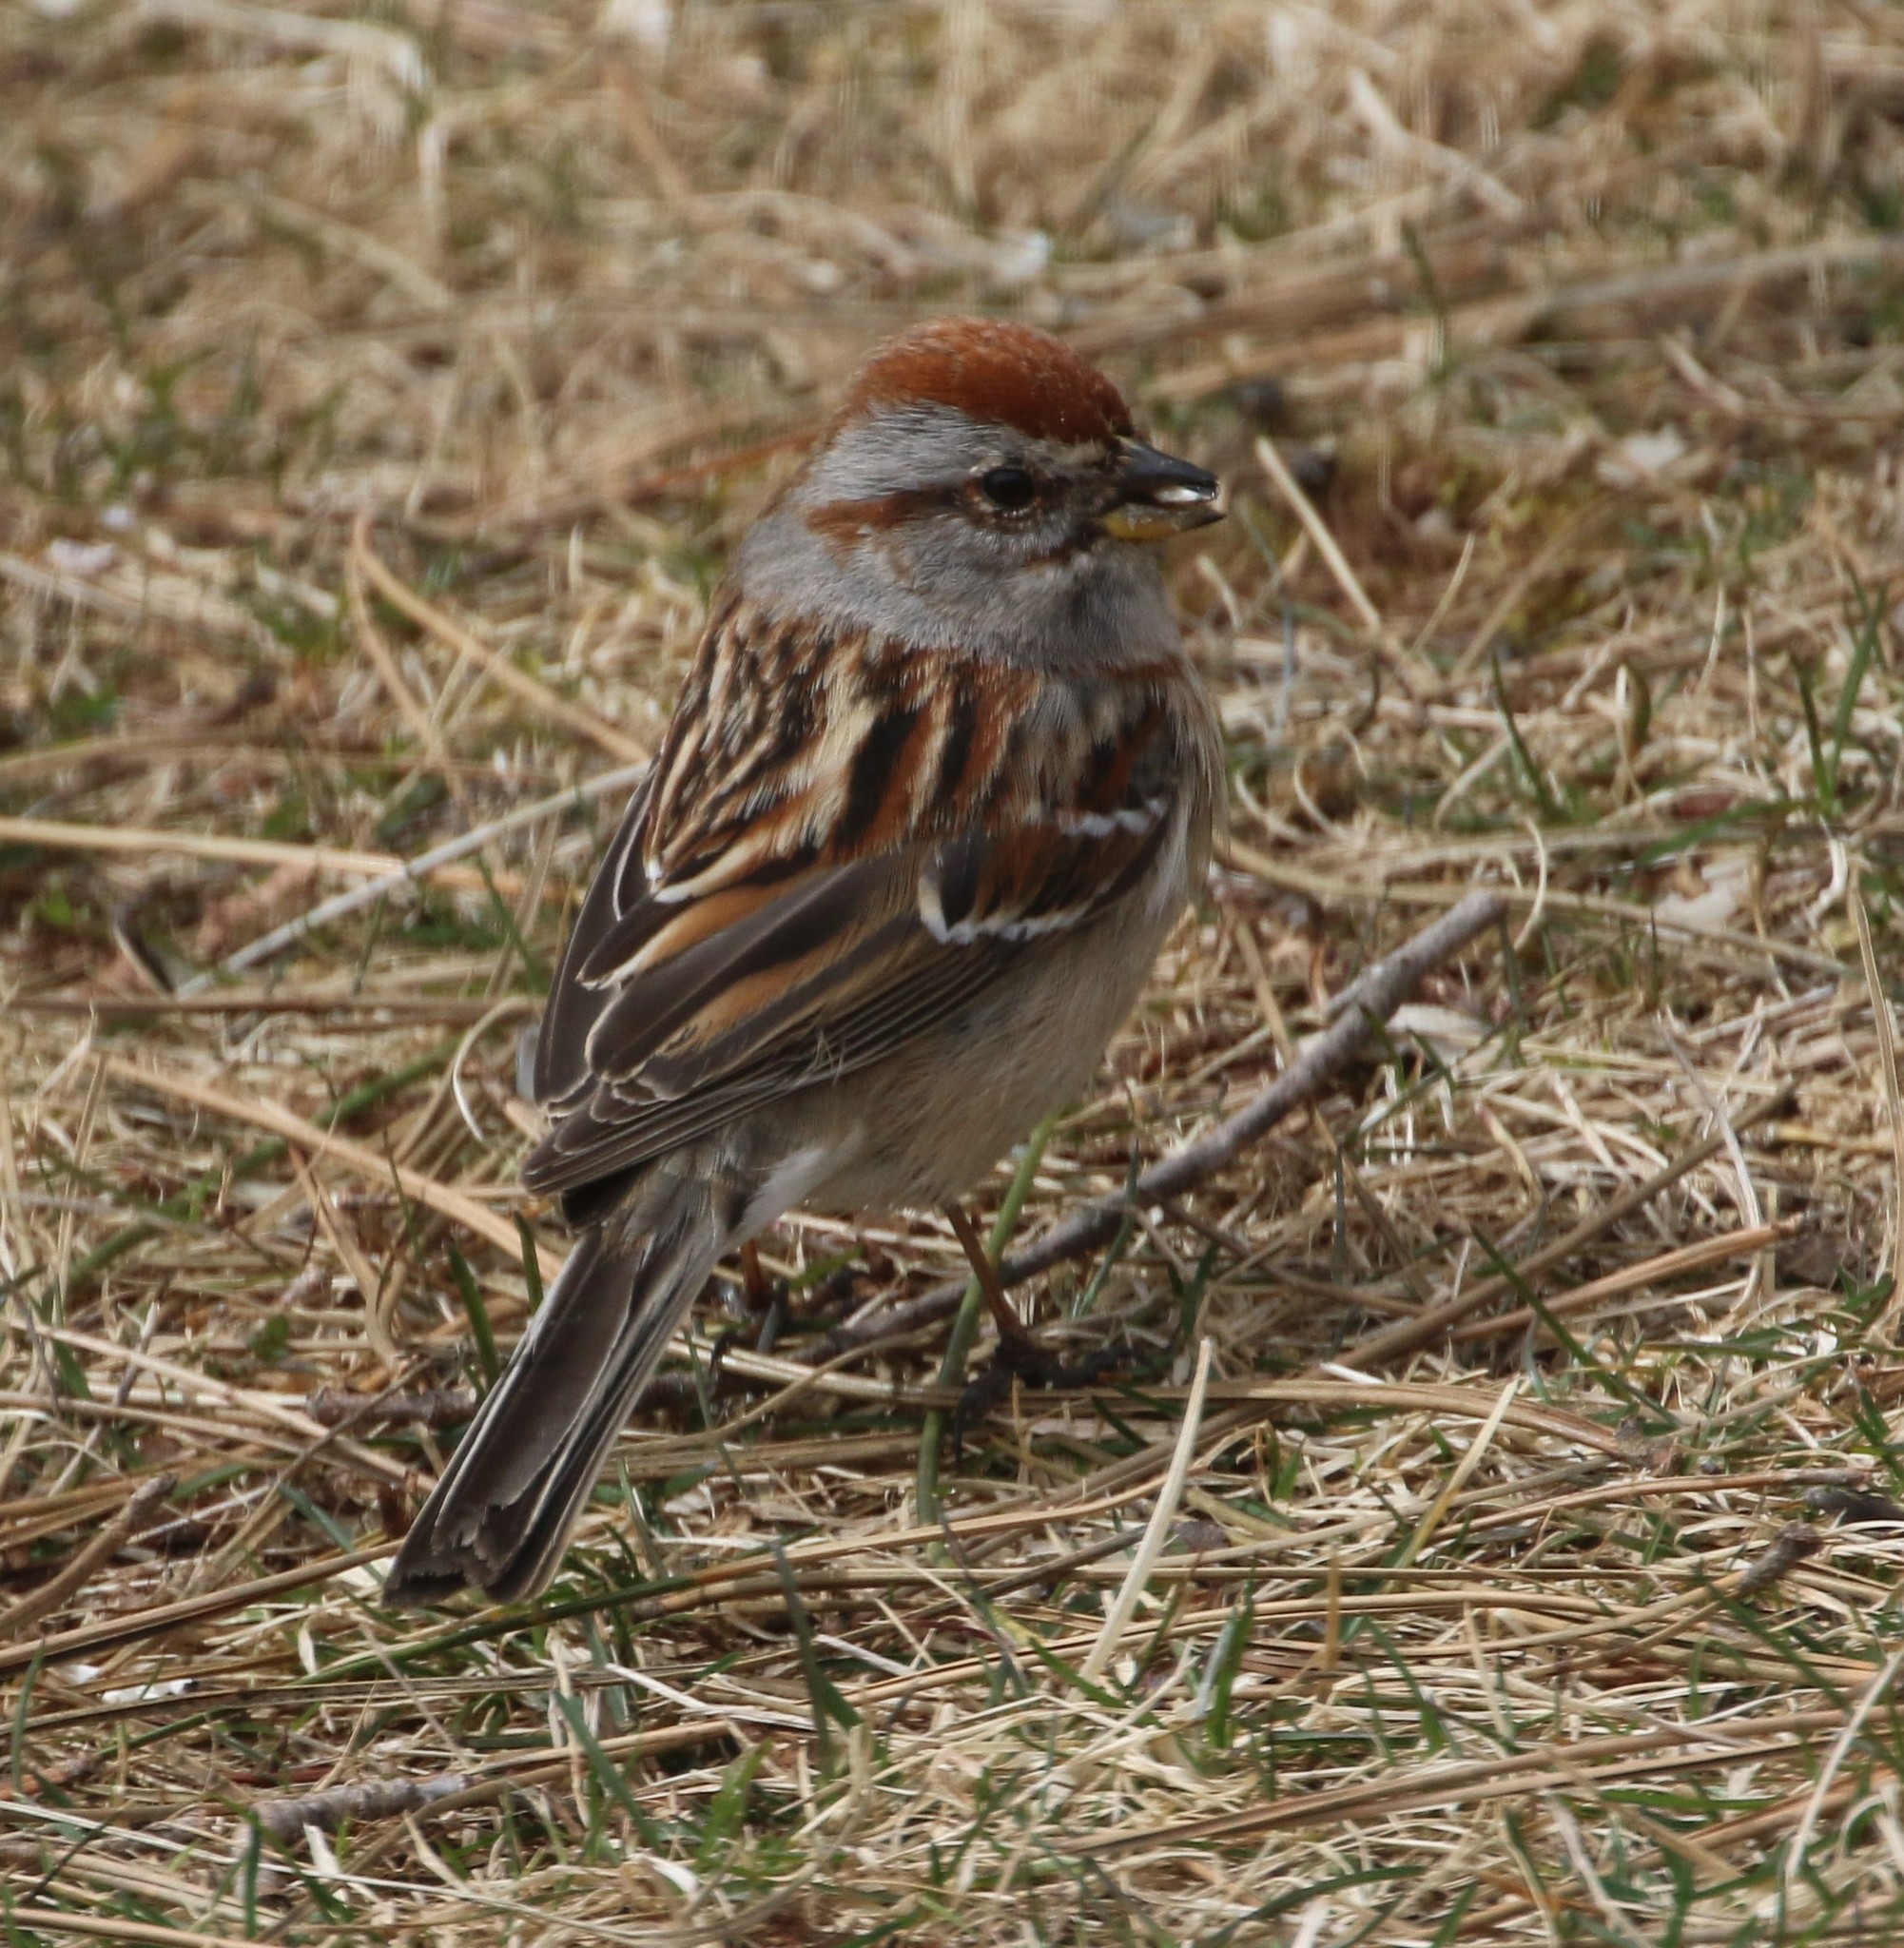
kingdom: Animalia
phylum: Chordata
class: Aves
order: Passeriformes
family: Passerellidae
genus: Spizelloides
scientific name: Spizelloides arborea
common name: American tree sparrow
